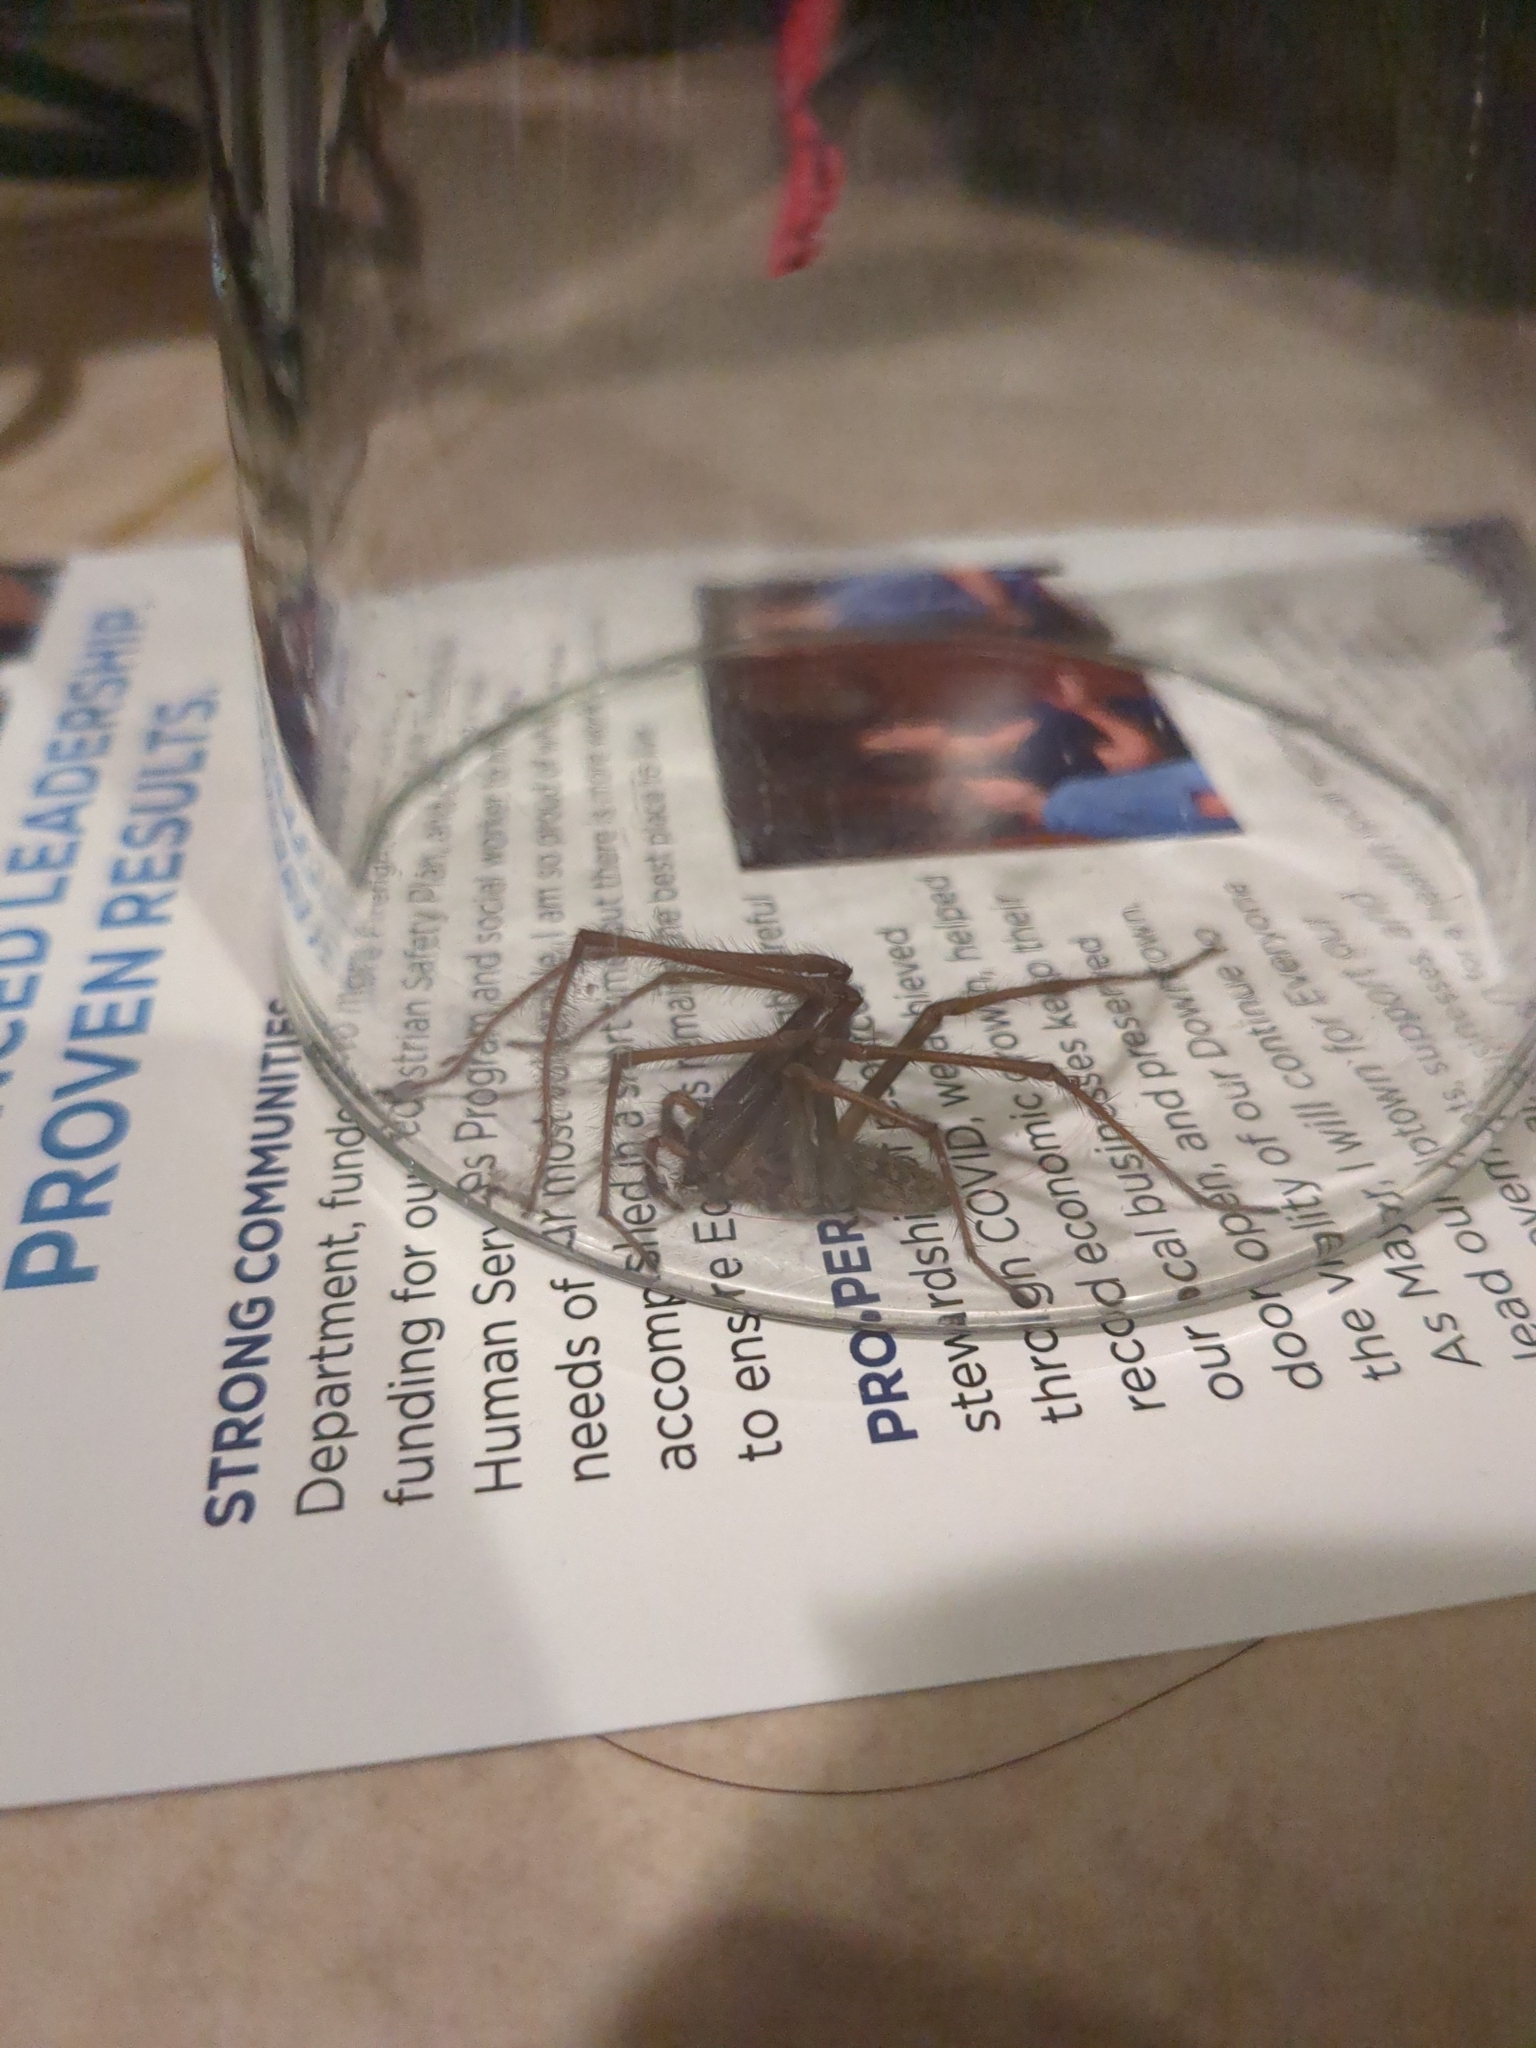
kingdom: Animalia
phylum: Arthropoda
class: Arachnida
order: Araneae
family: Agelenidae
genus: Eratigena
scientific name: Eratigena duellica
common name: Giant house spider
